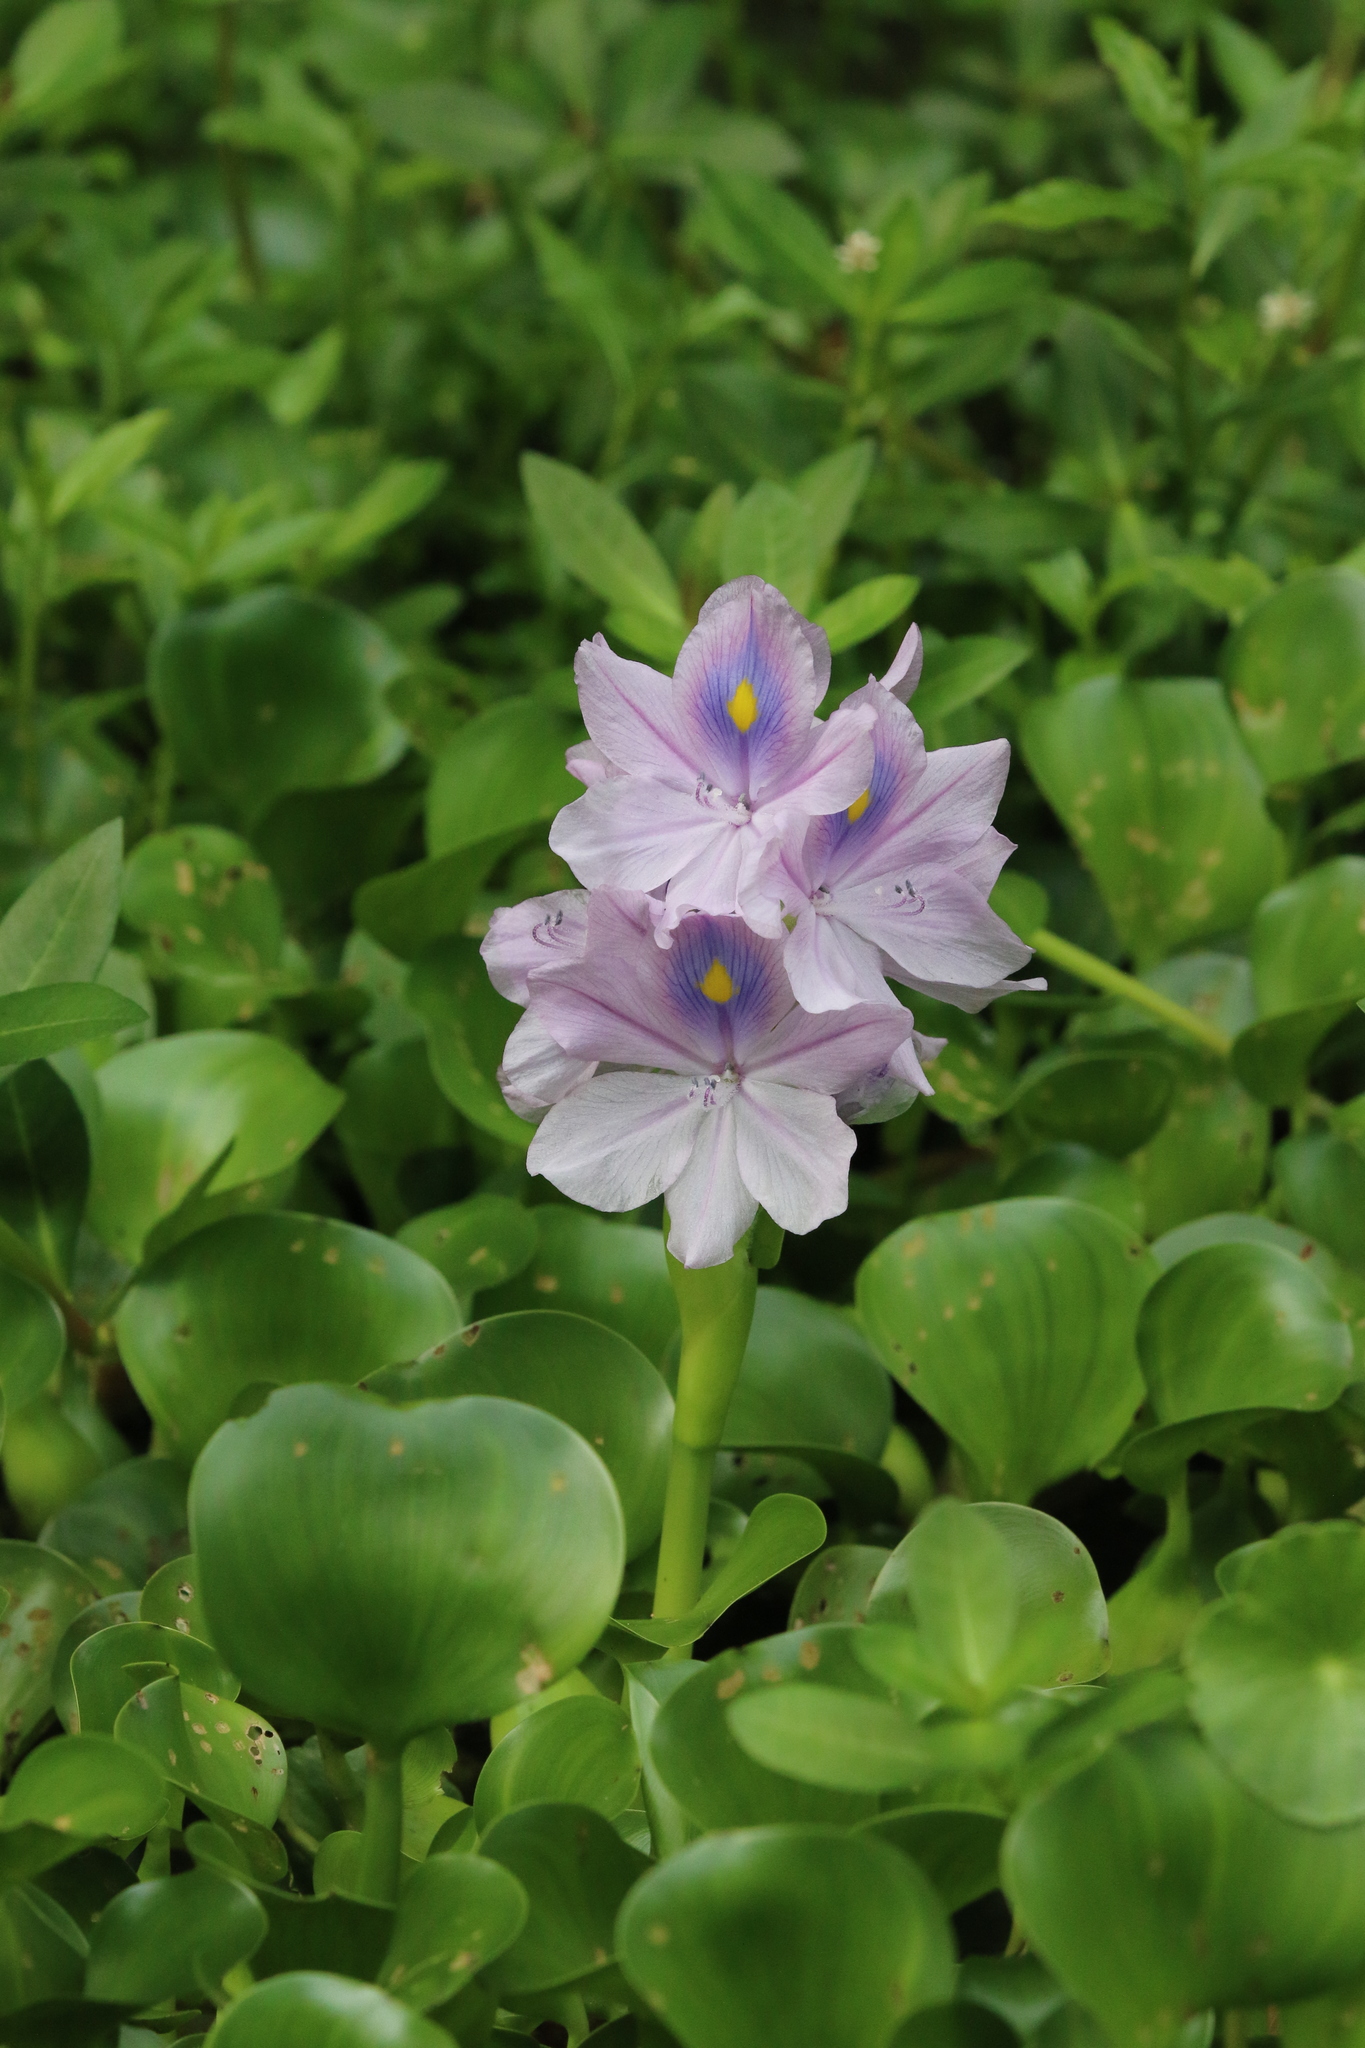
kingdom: Plantae
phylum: Tracheophyta
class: Liliopsida
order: Commelinales
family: Pontederiaceae
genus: Pontederia
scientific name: Pontederia crassipes
